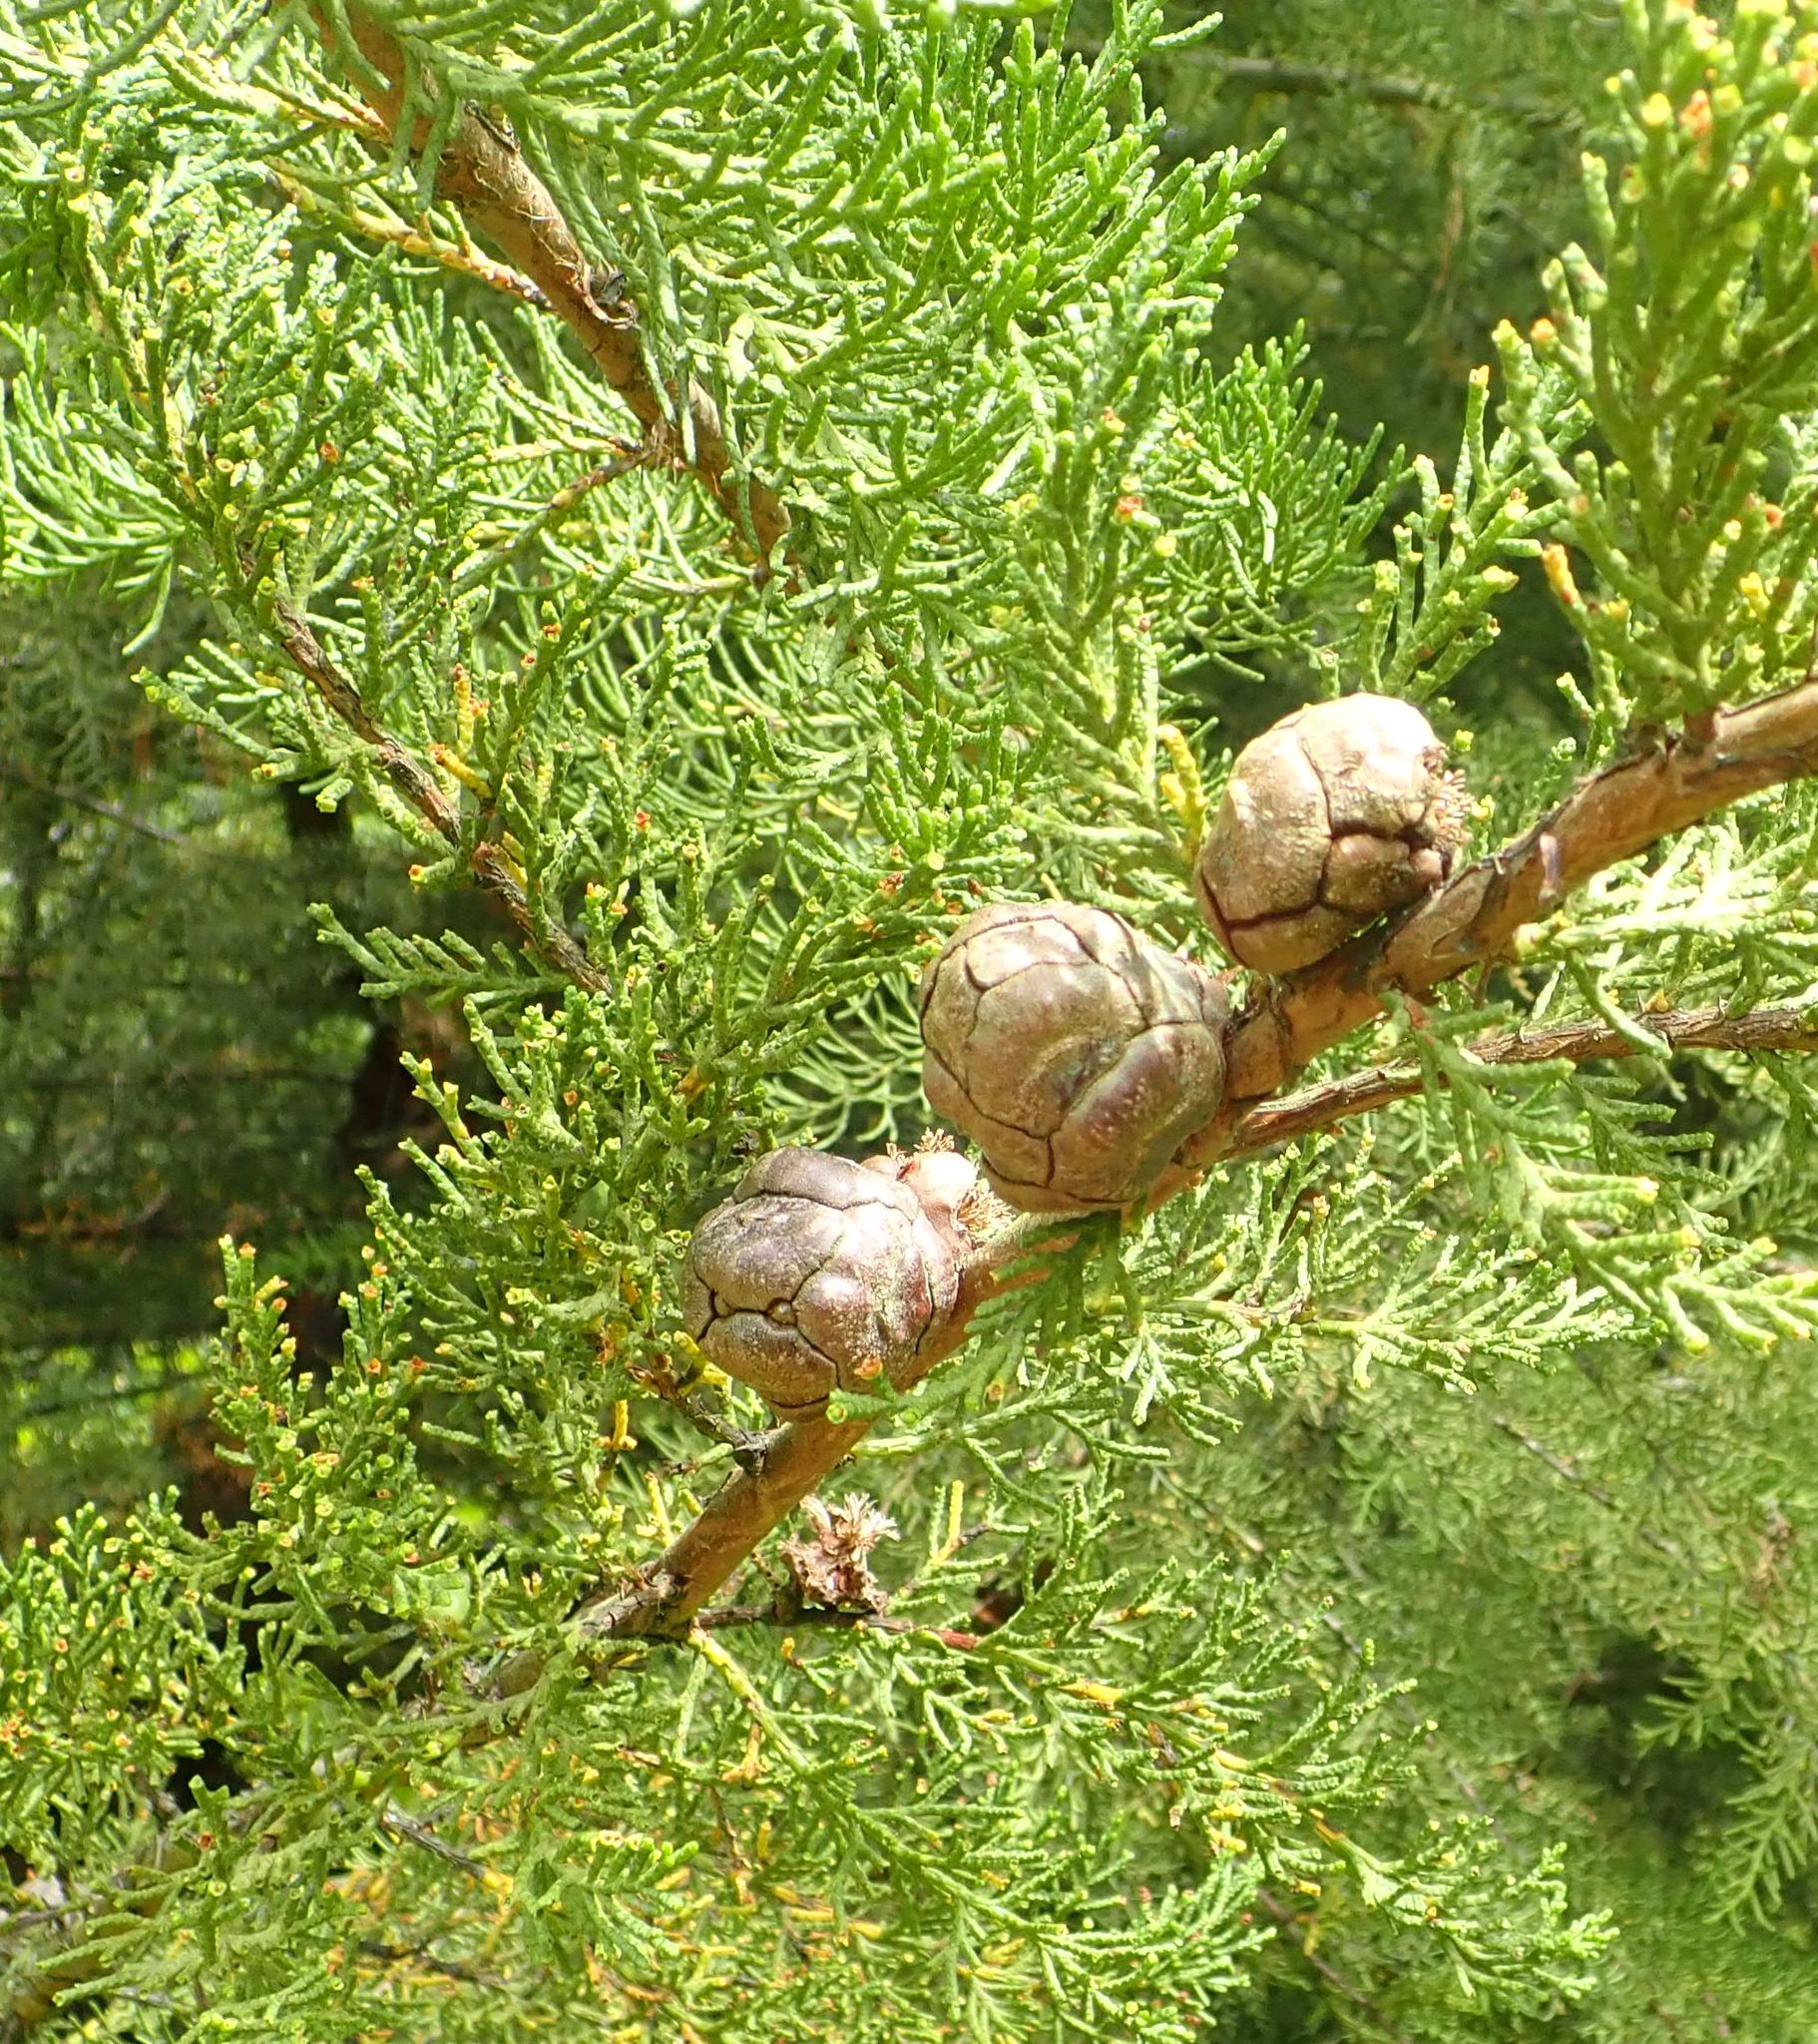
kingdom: Plantae
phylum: Tracheophyta
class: Pinopsida
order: Pinales
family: Cupressaceae
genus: Cupressus
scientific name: Cupressus macrocarpa
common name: Monterey cypress
